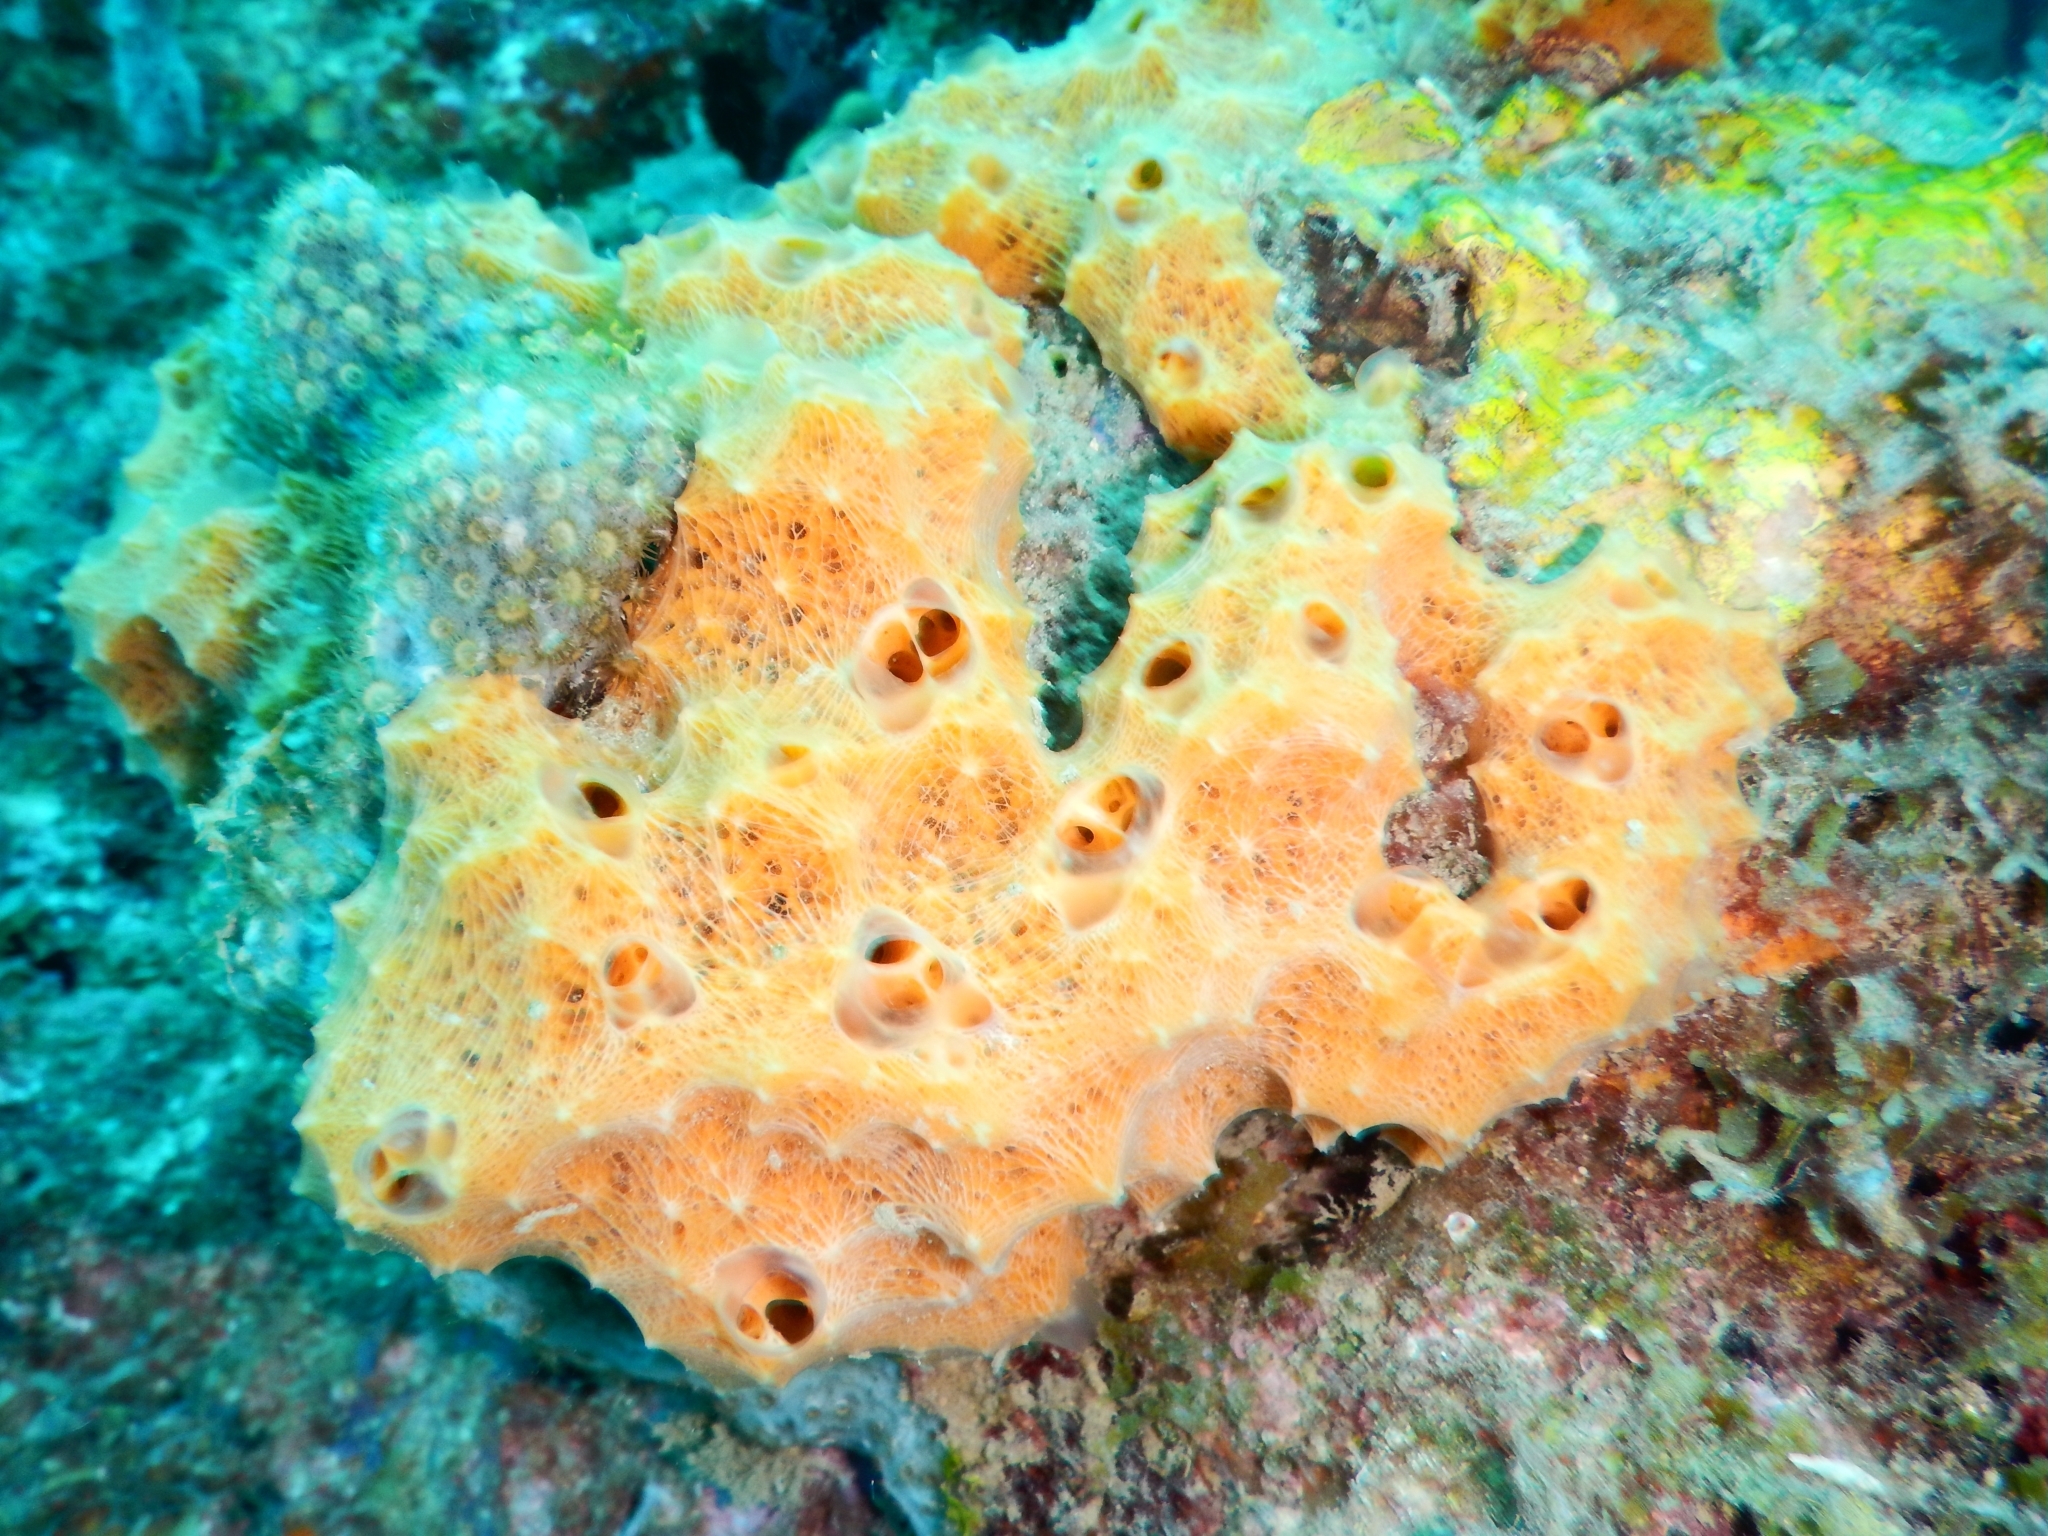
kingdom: Animalia
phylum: Porifera
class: Demospongiae
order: Scopalinida
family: Scopalinidae
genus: Scopalina
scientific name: Scopalina ruetzleri
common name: Orange lumpy encrusting sponge
